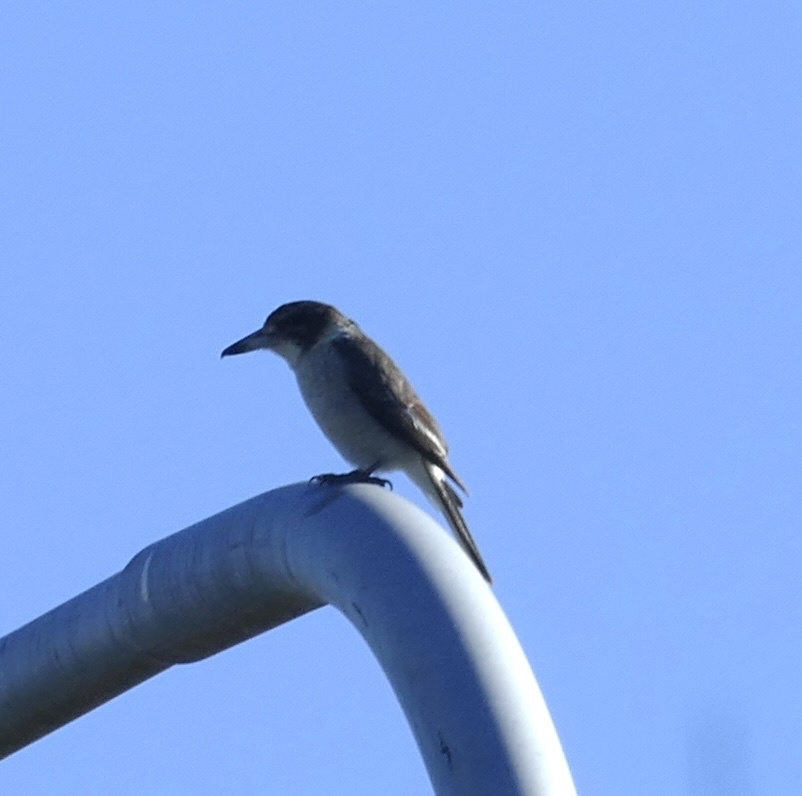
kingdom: Animalia
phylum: Chordata
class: Aves
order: Passeriformes
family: Cracticidae
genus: Cracticus
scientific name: Cracticus torquatus
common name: Grey butcherbird
